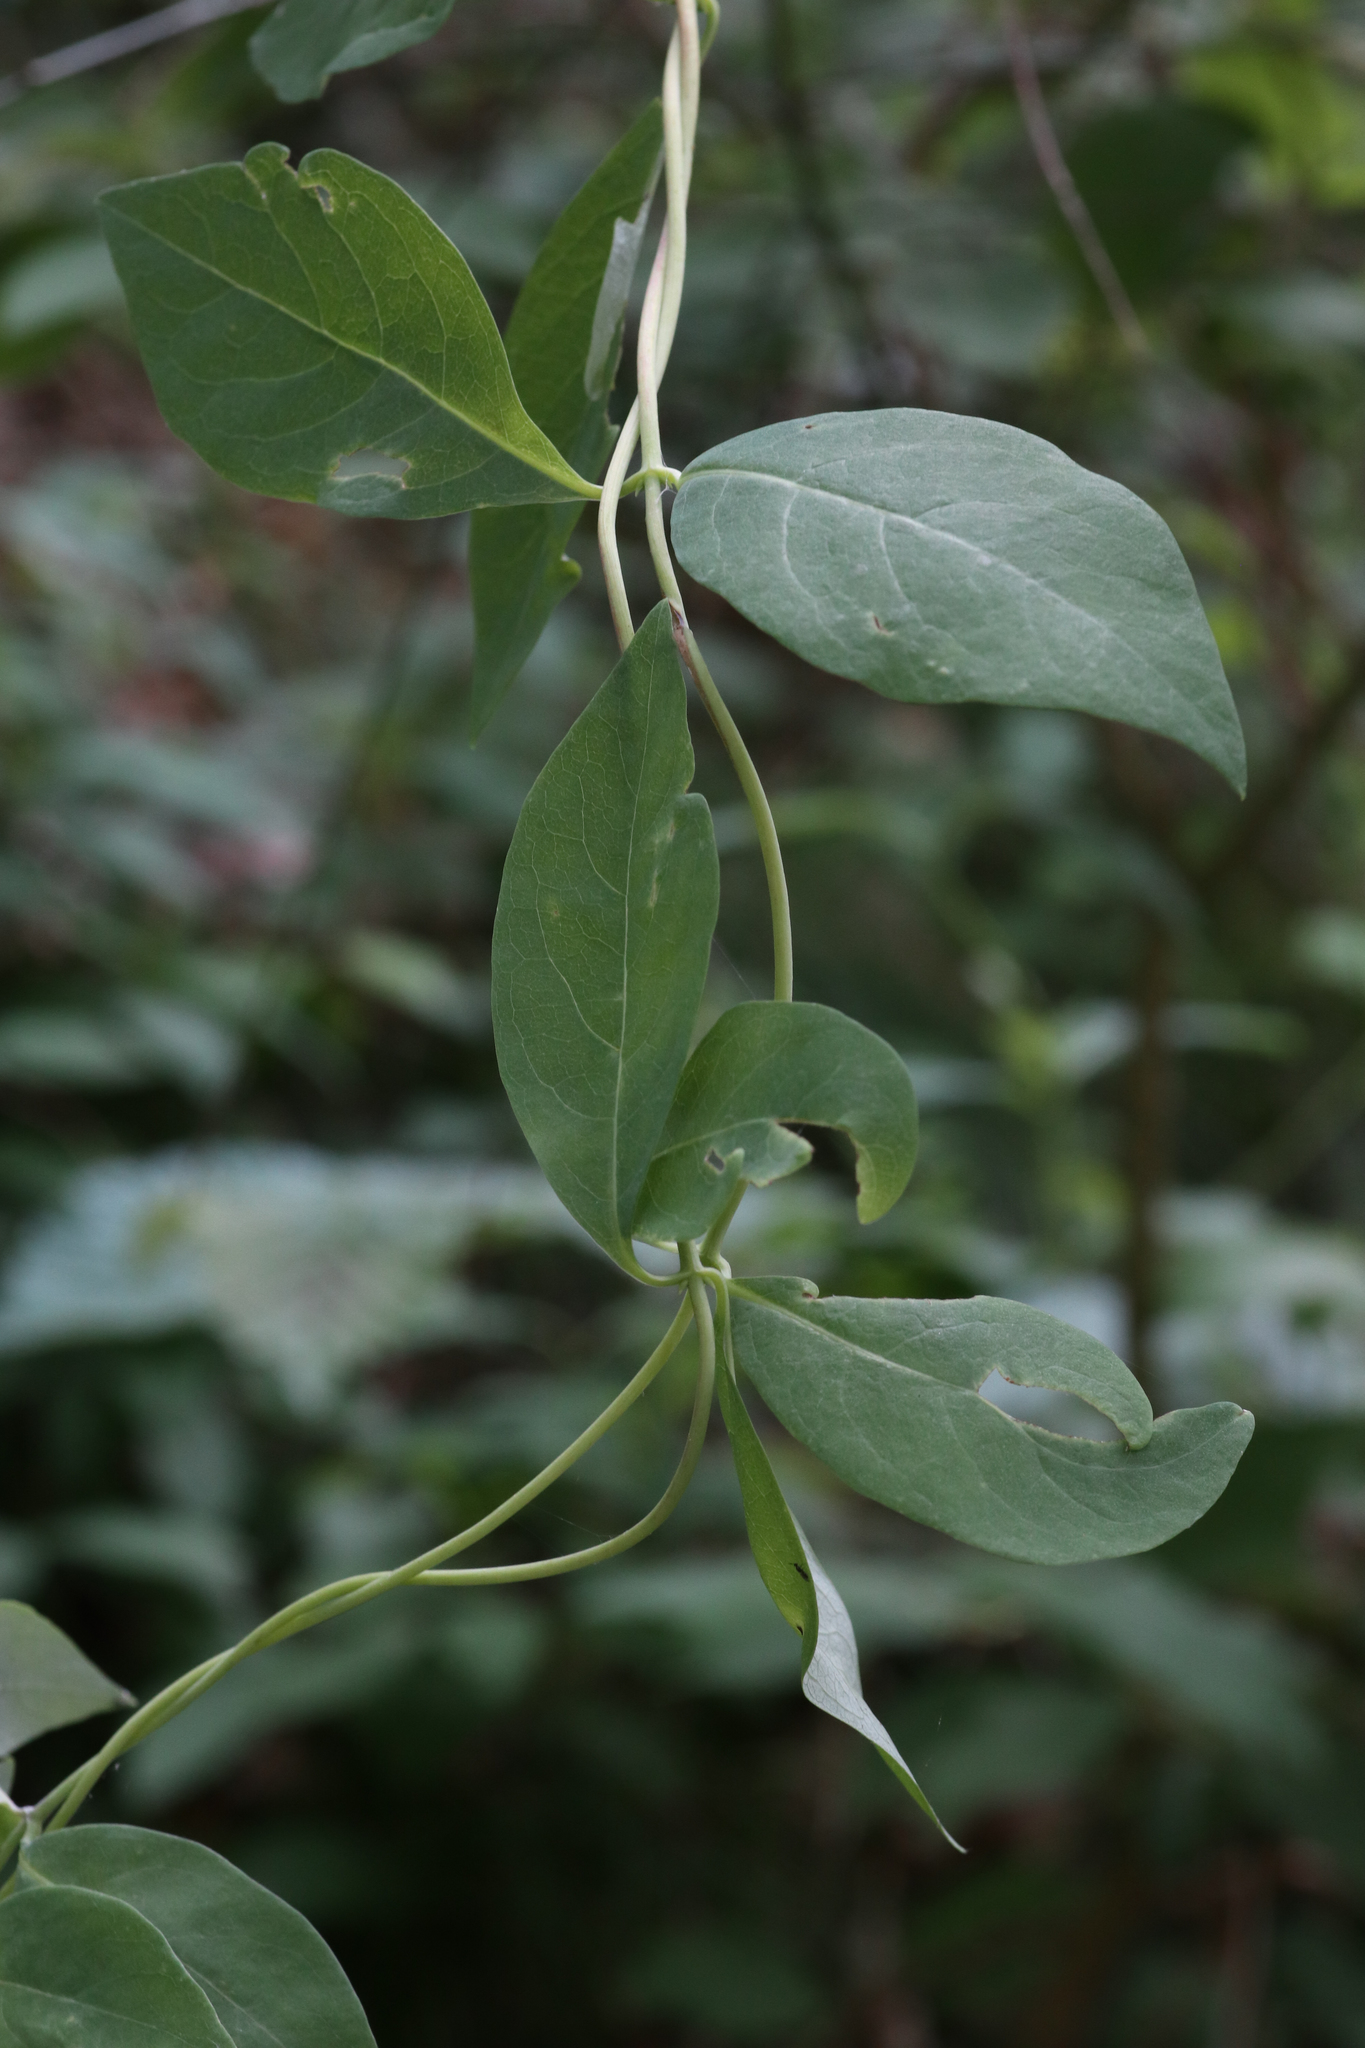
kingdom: Plantae
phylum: Tracheophyta
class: Magnoliopsida
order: Dipsacales
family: Caprifoliaceae
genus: Lonicera
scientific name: Lonicera periclymenum
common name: European honeysuckle
